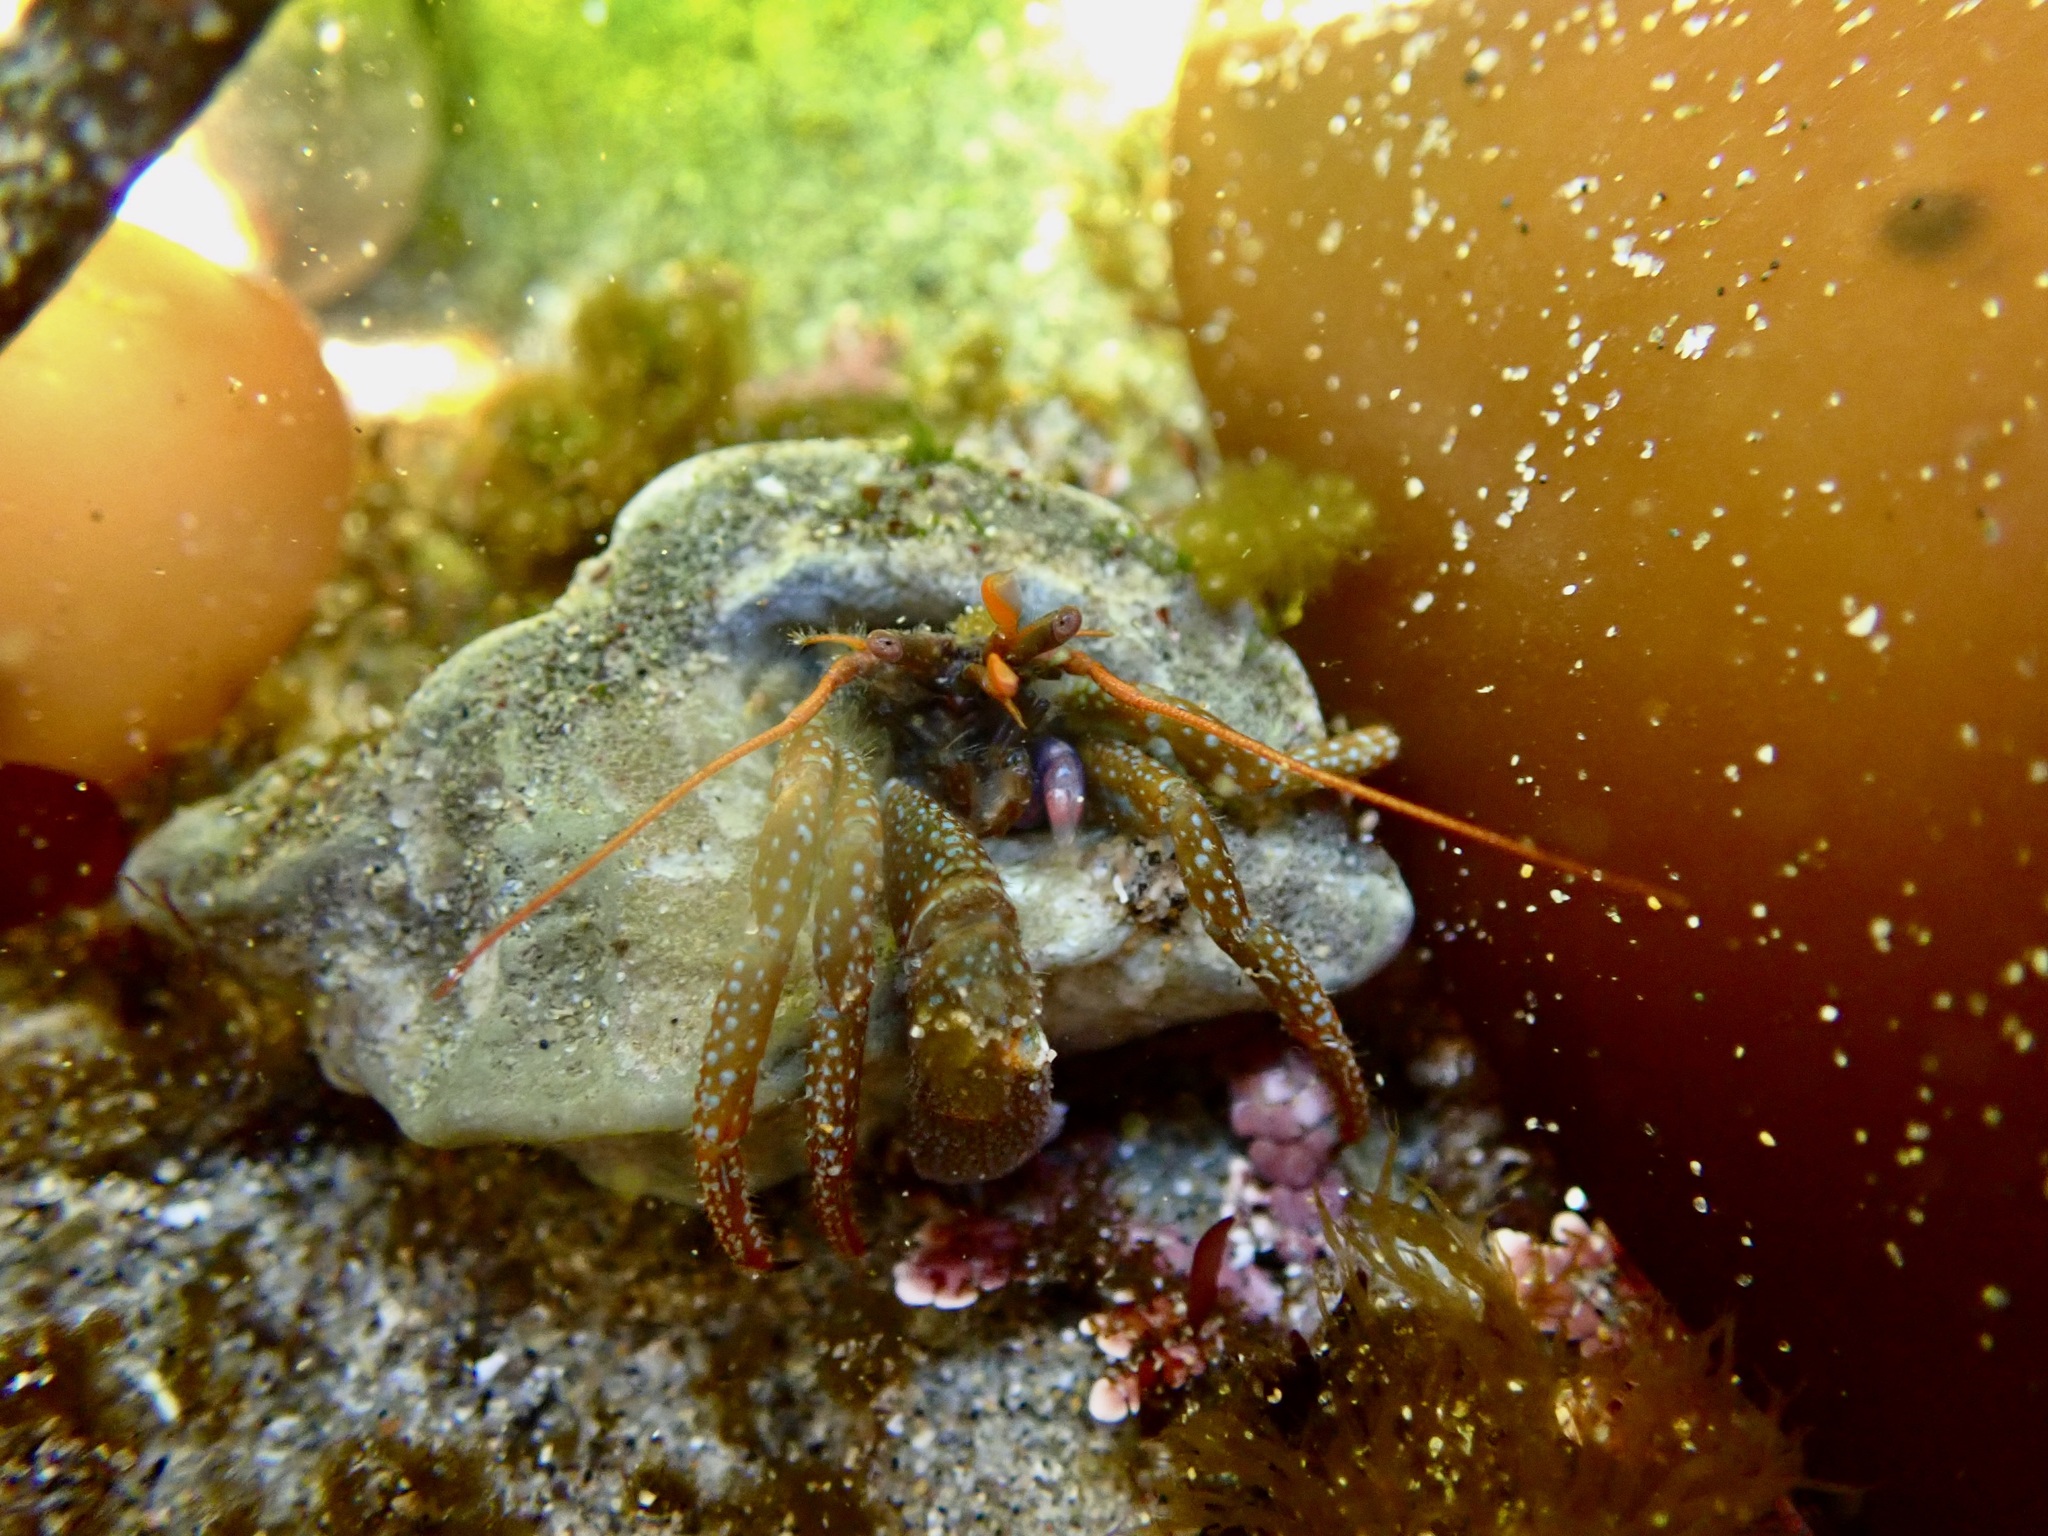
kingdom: Animalia
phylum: Arthropoda
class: Malacostraca
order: Decapoda
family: Paguridae
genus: Pagurus
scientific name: Pagurus granosimanus
